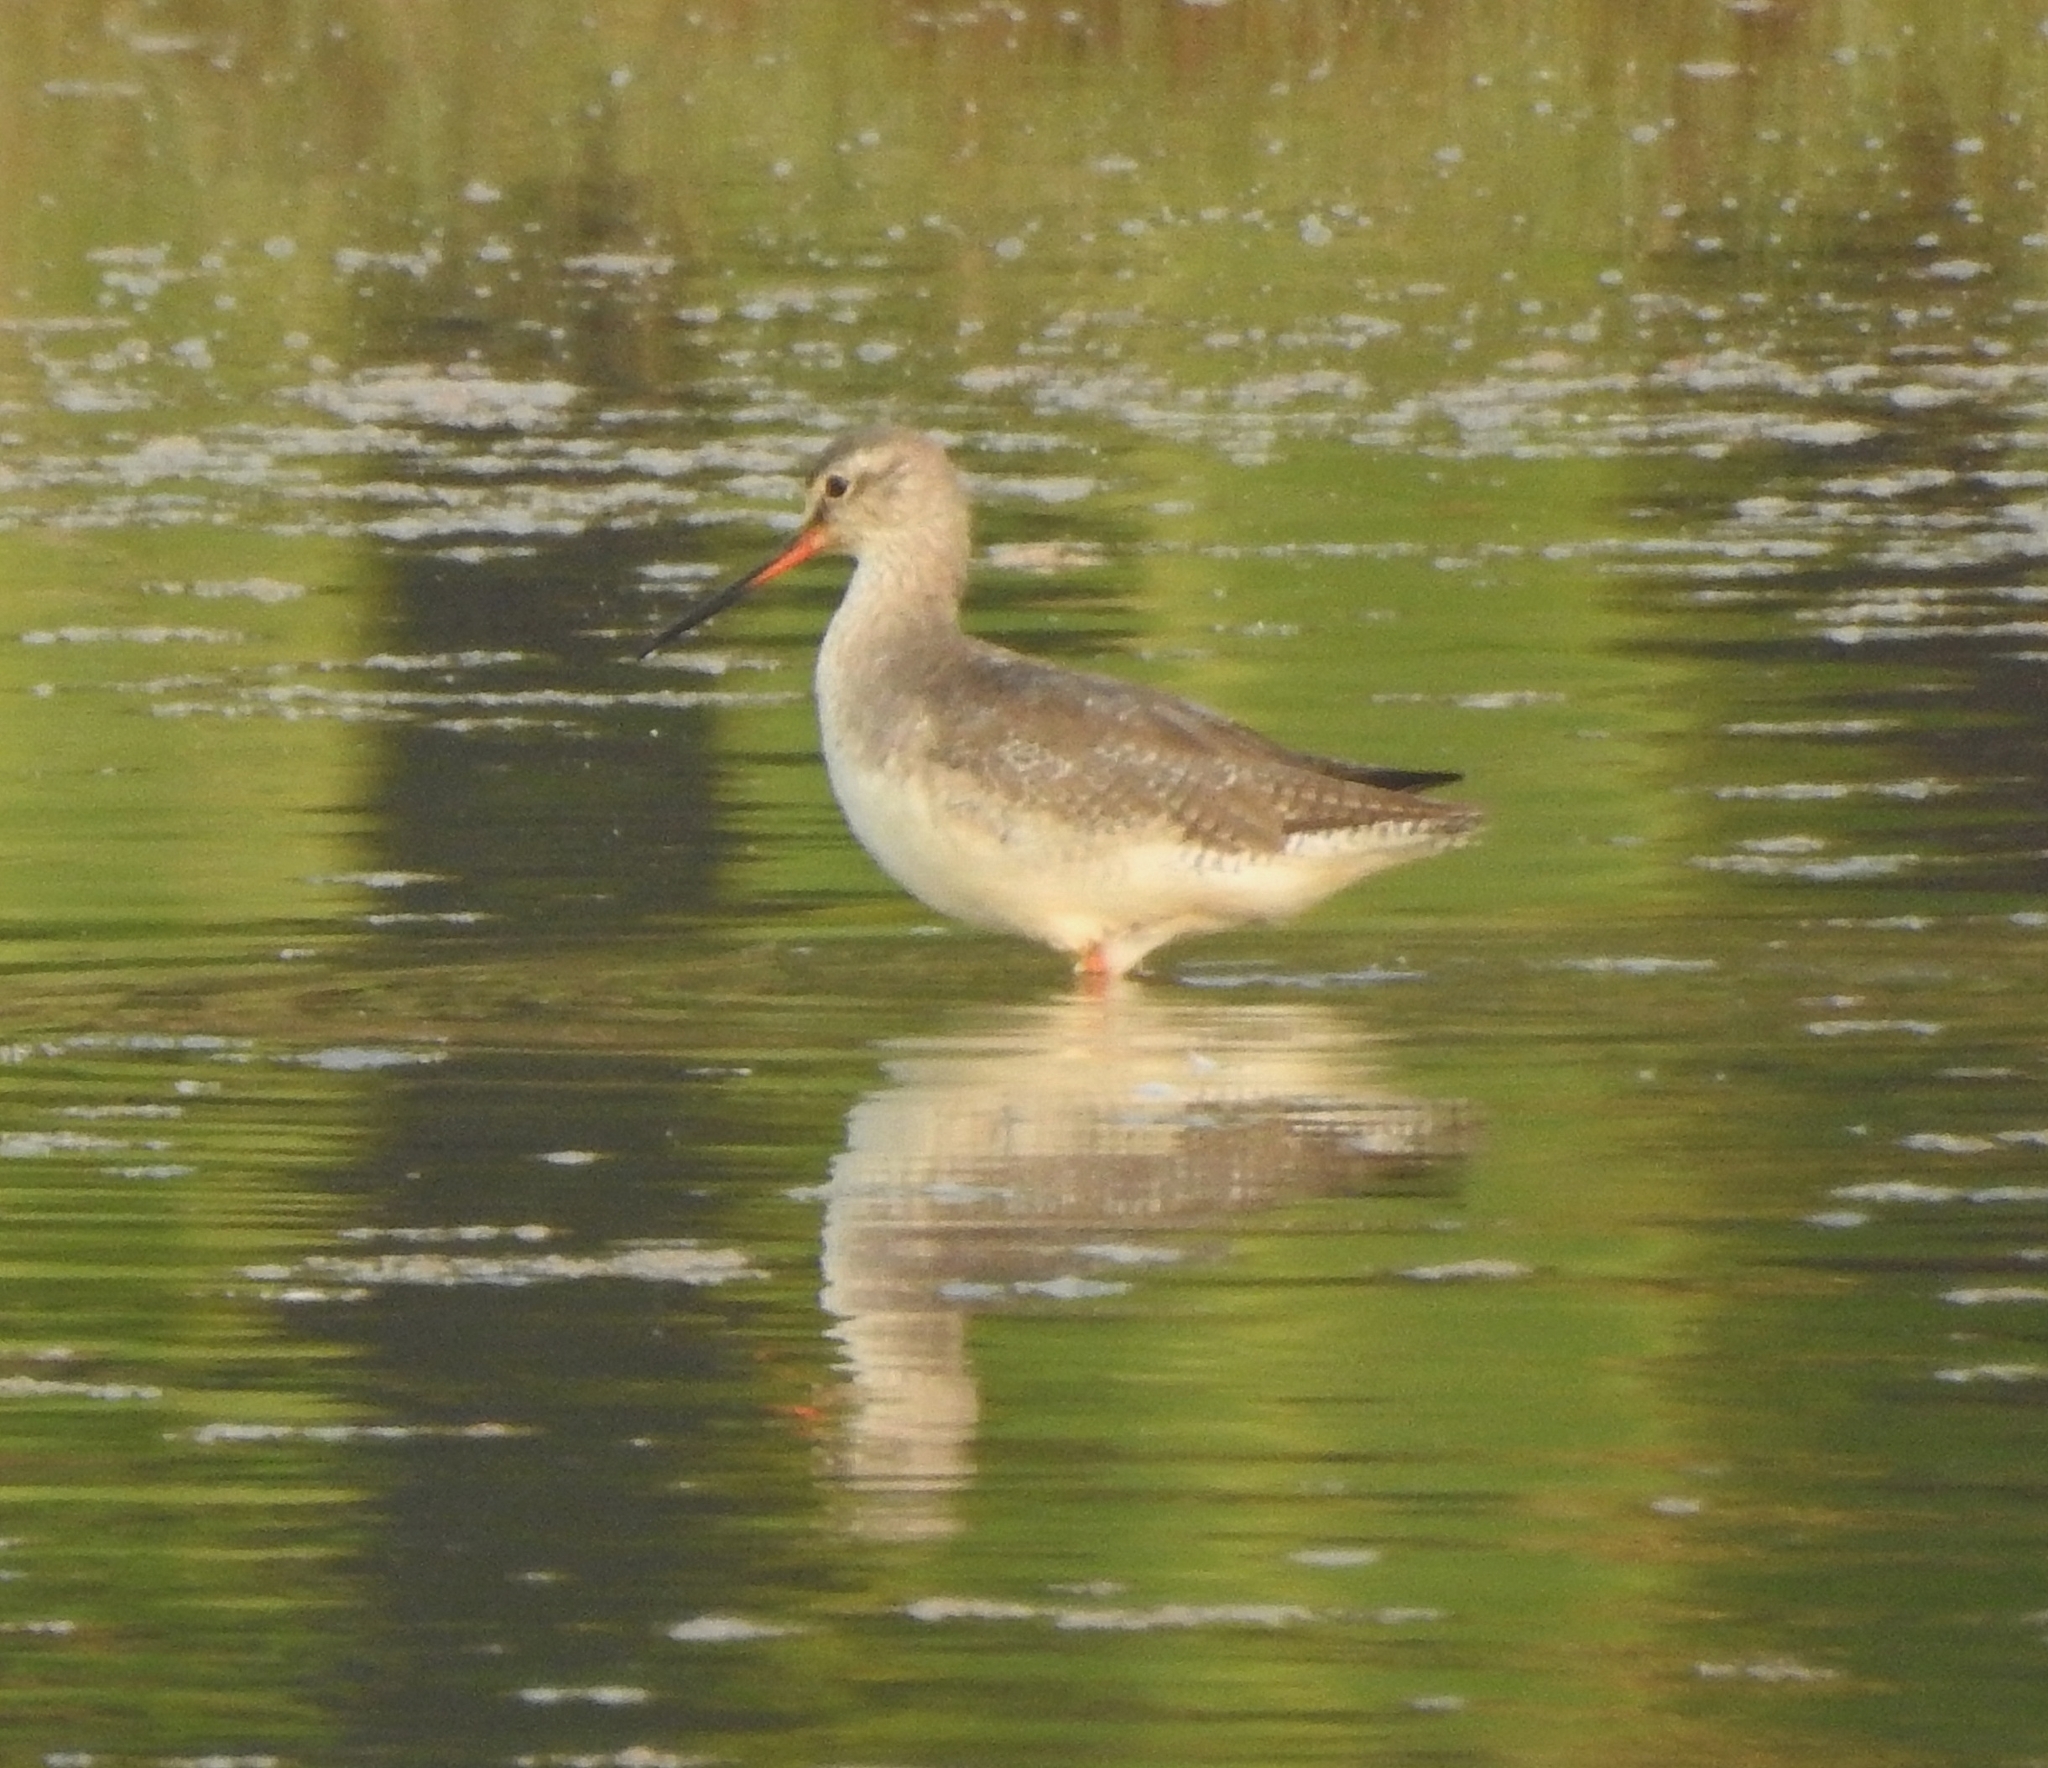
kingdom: Animalia
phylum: Chordata
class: Aves
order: Charadriiformes
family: Scolopacidae
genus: Tringa
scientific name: Tringa erythropus
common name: Spotted redshank
